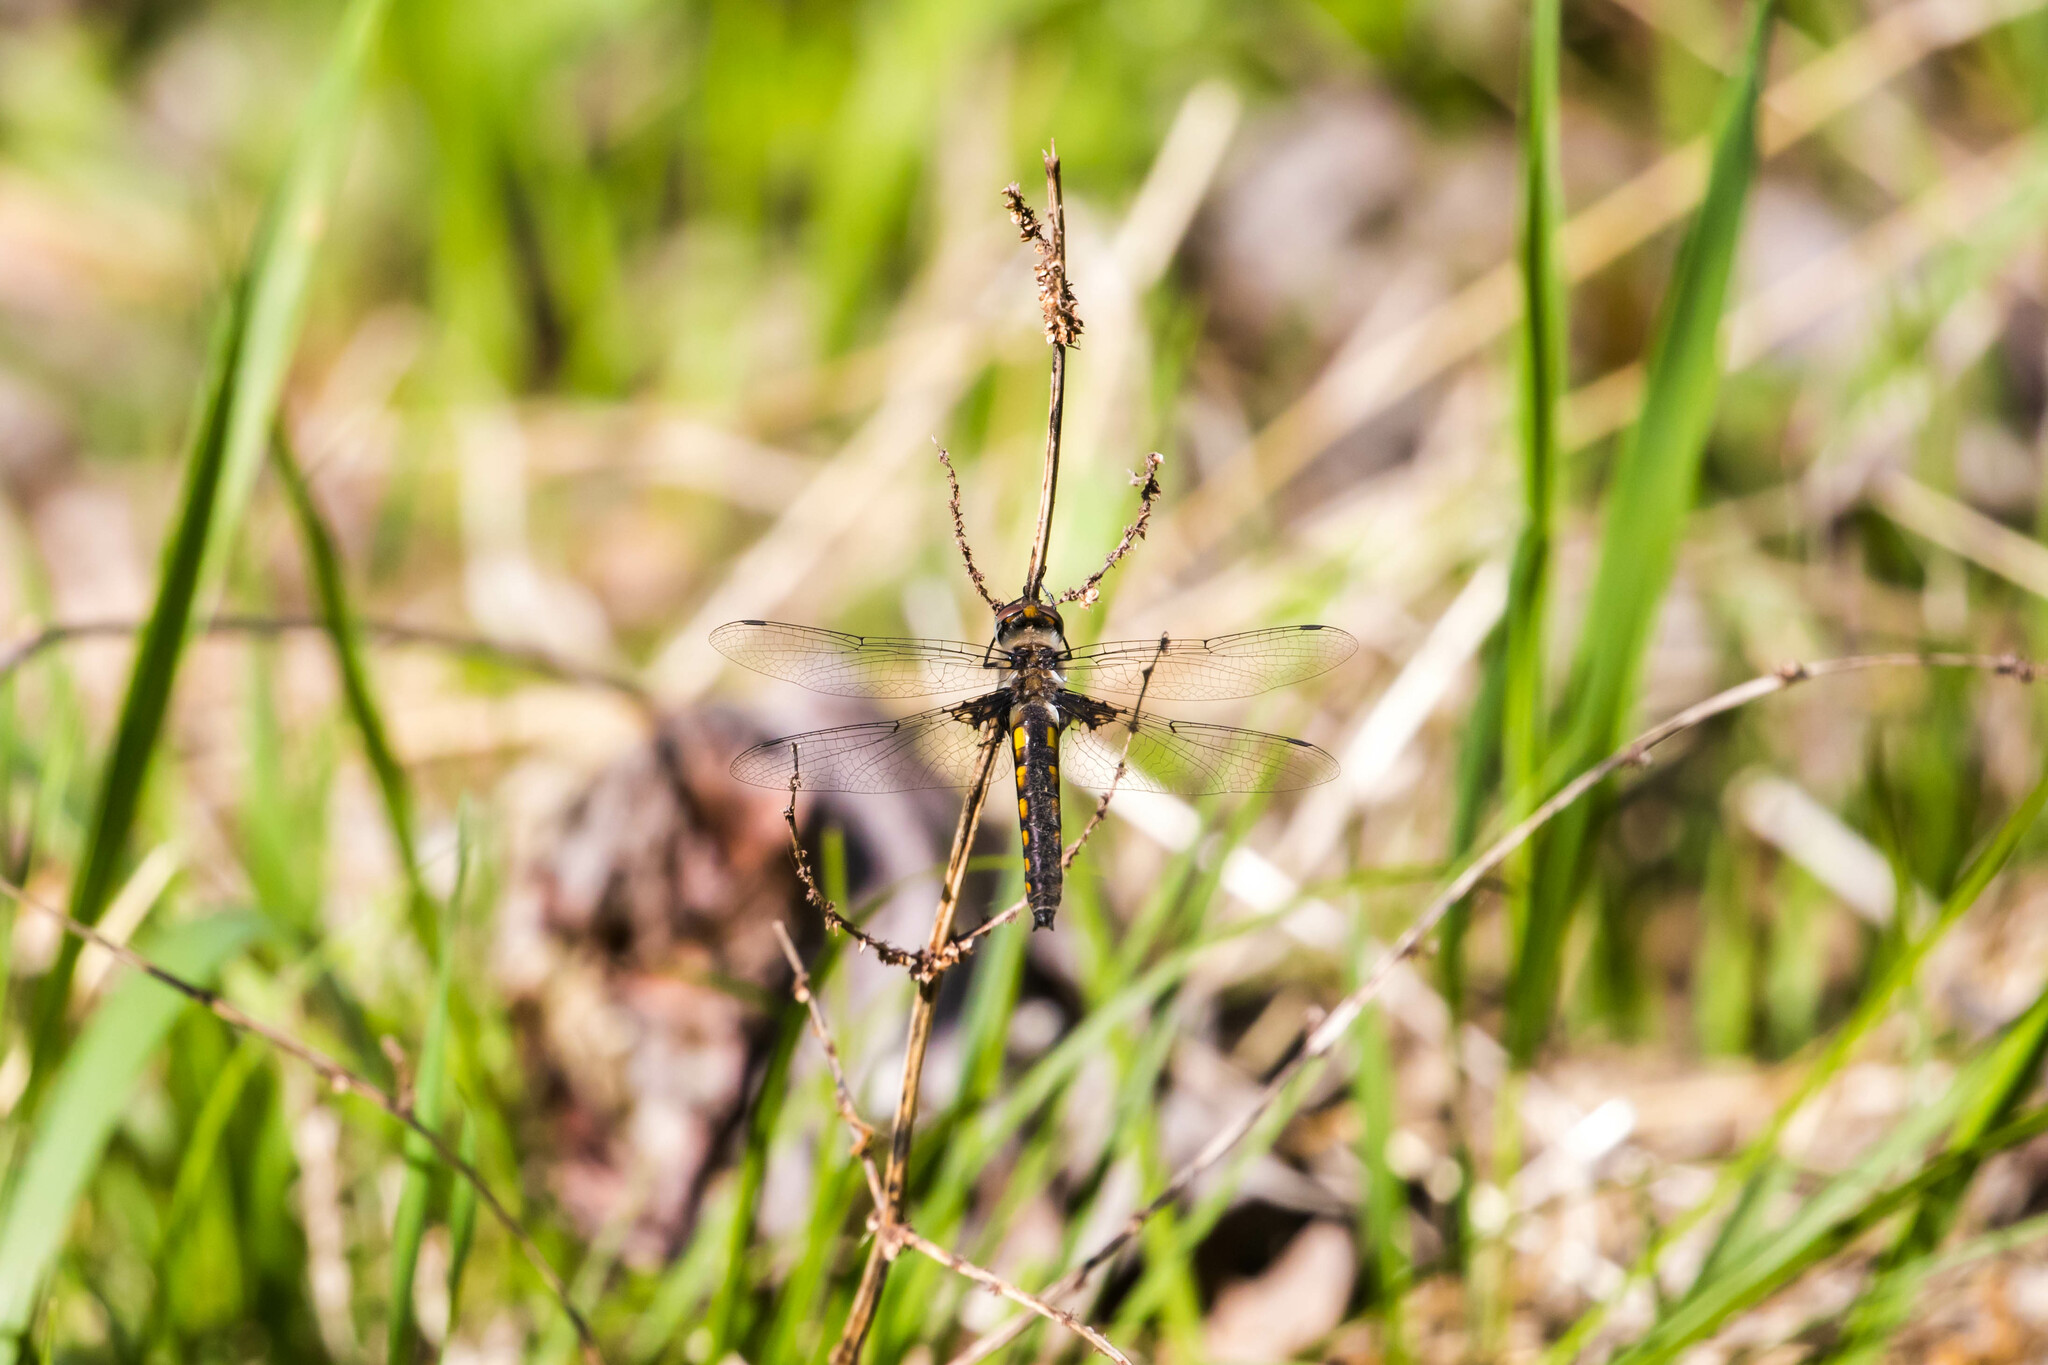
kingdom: Animalia
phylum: Arthropoda
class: Insecta
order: Odonata
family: Corduliidae
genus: Epitheca
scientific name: Epitheca cynosura
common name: Common baskettail
